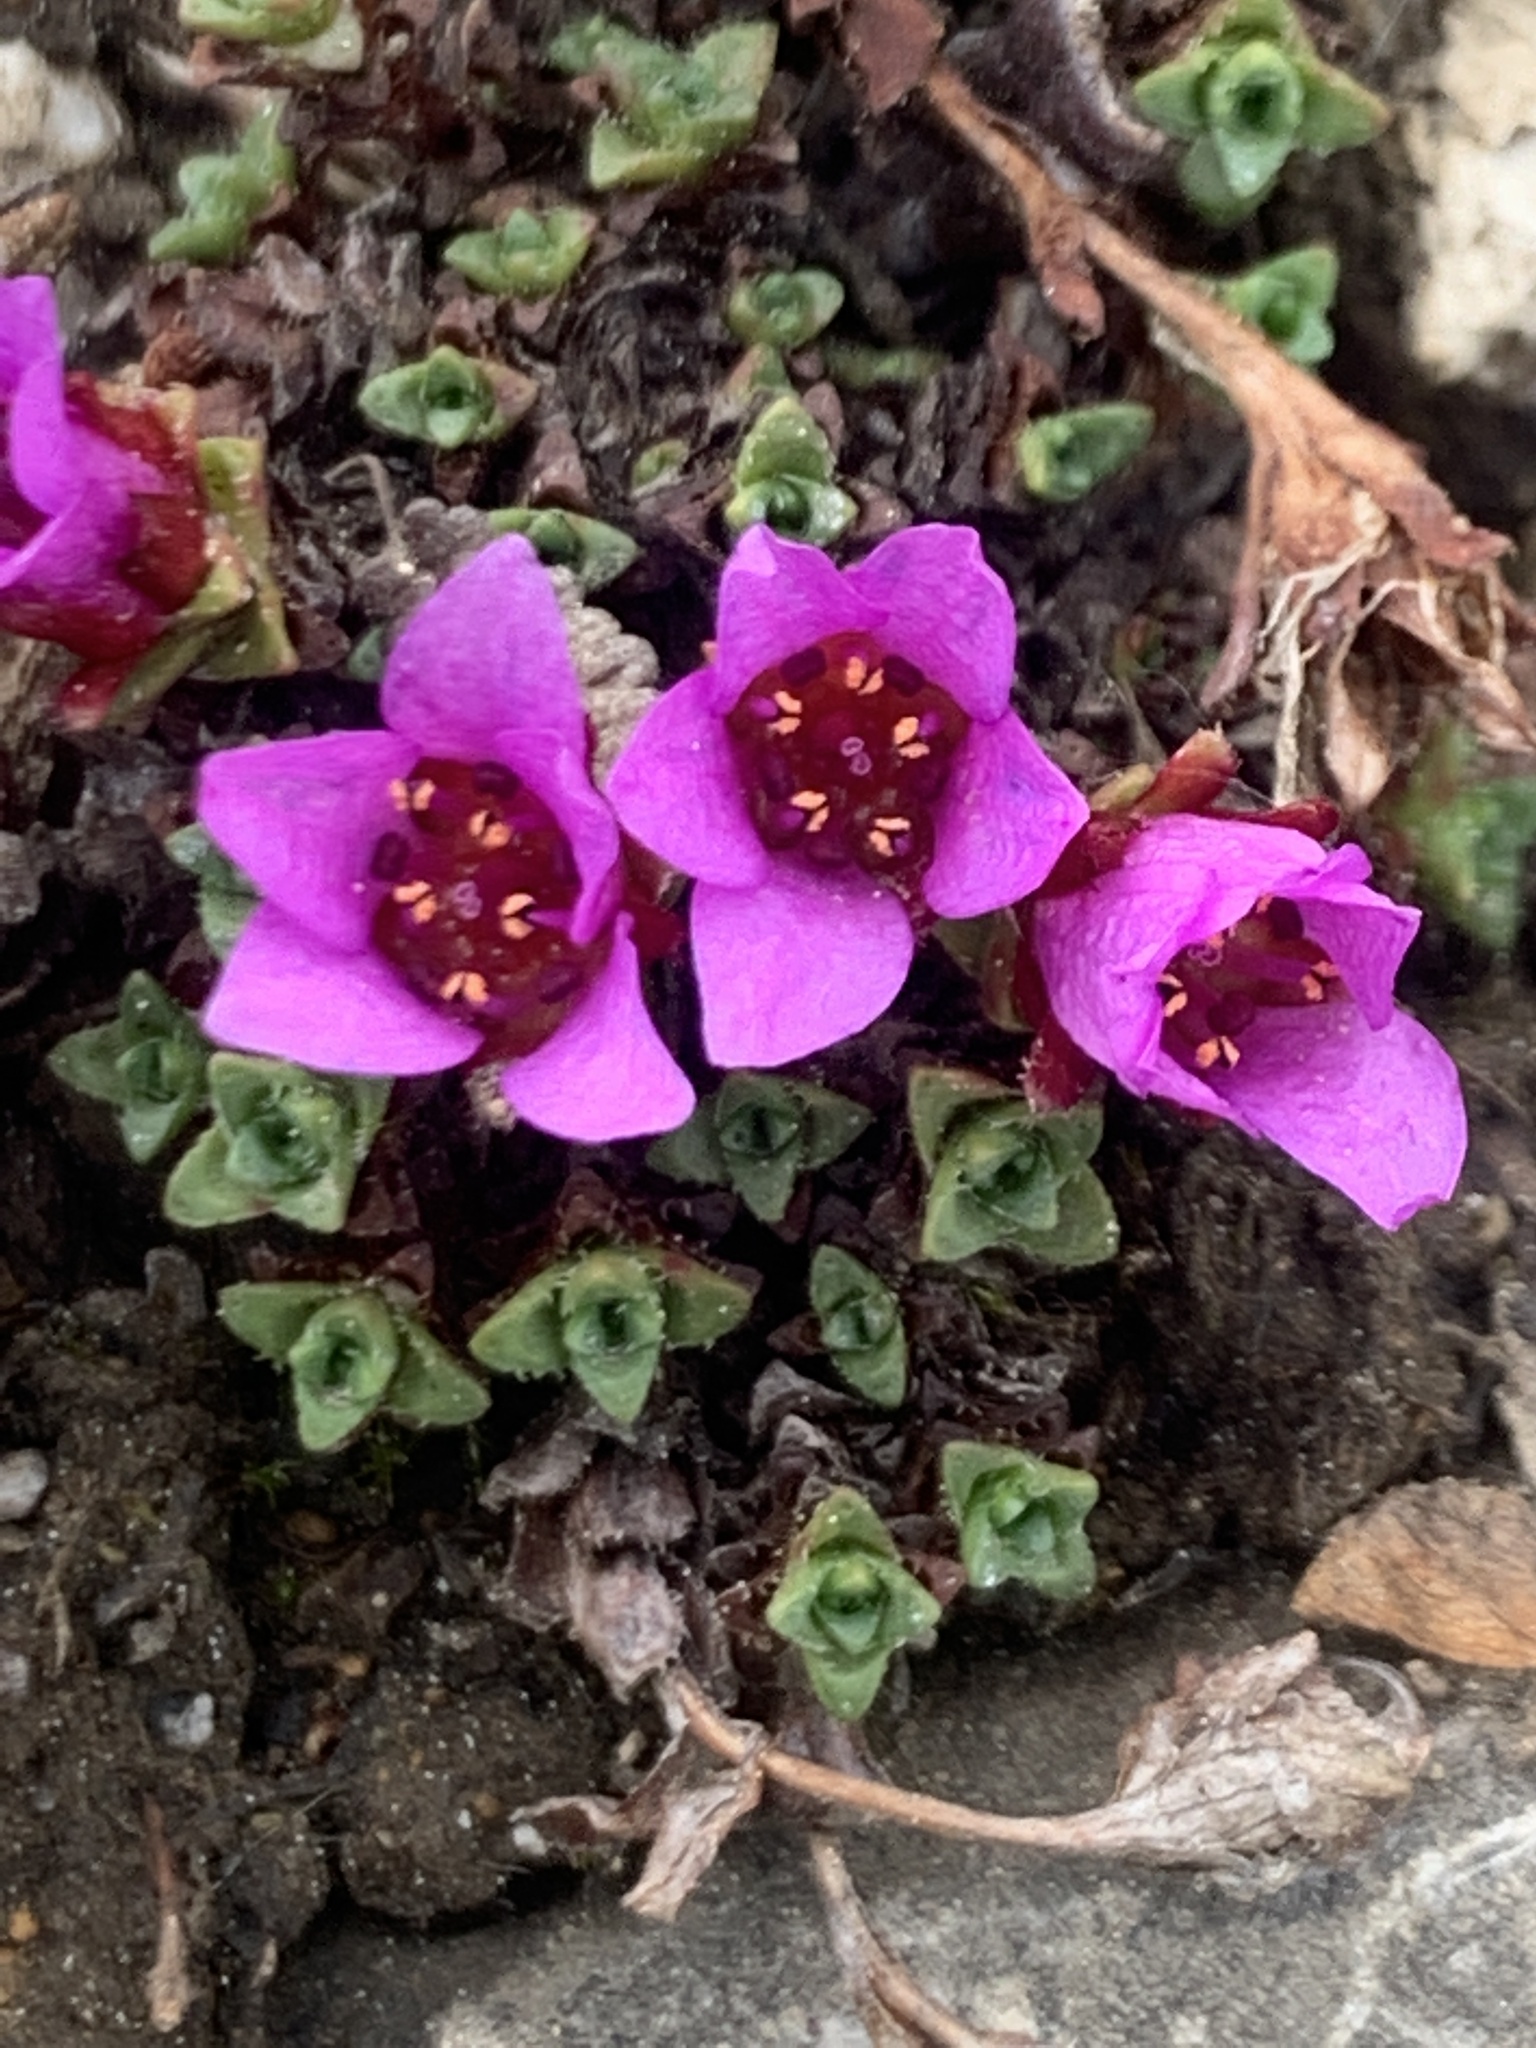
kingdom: Plantae
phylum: Tracheophyta
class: Magnoliopsida
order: Saxifragales
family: Saxifragaceae
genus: Saxifraga
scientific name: Saxifraga oppositifolia
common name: Purple saxifrage
